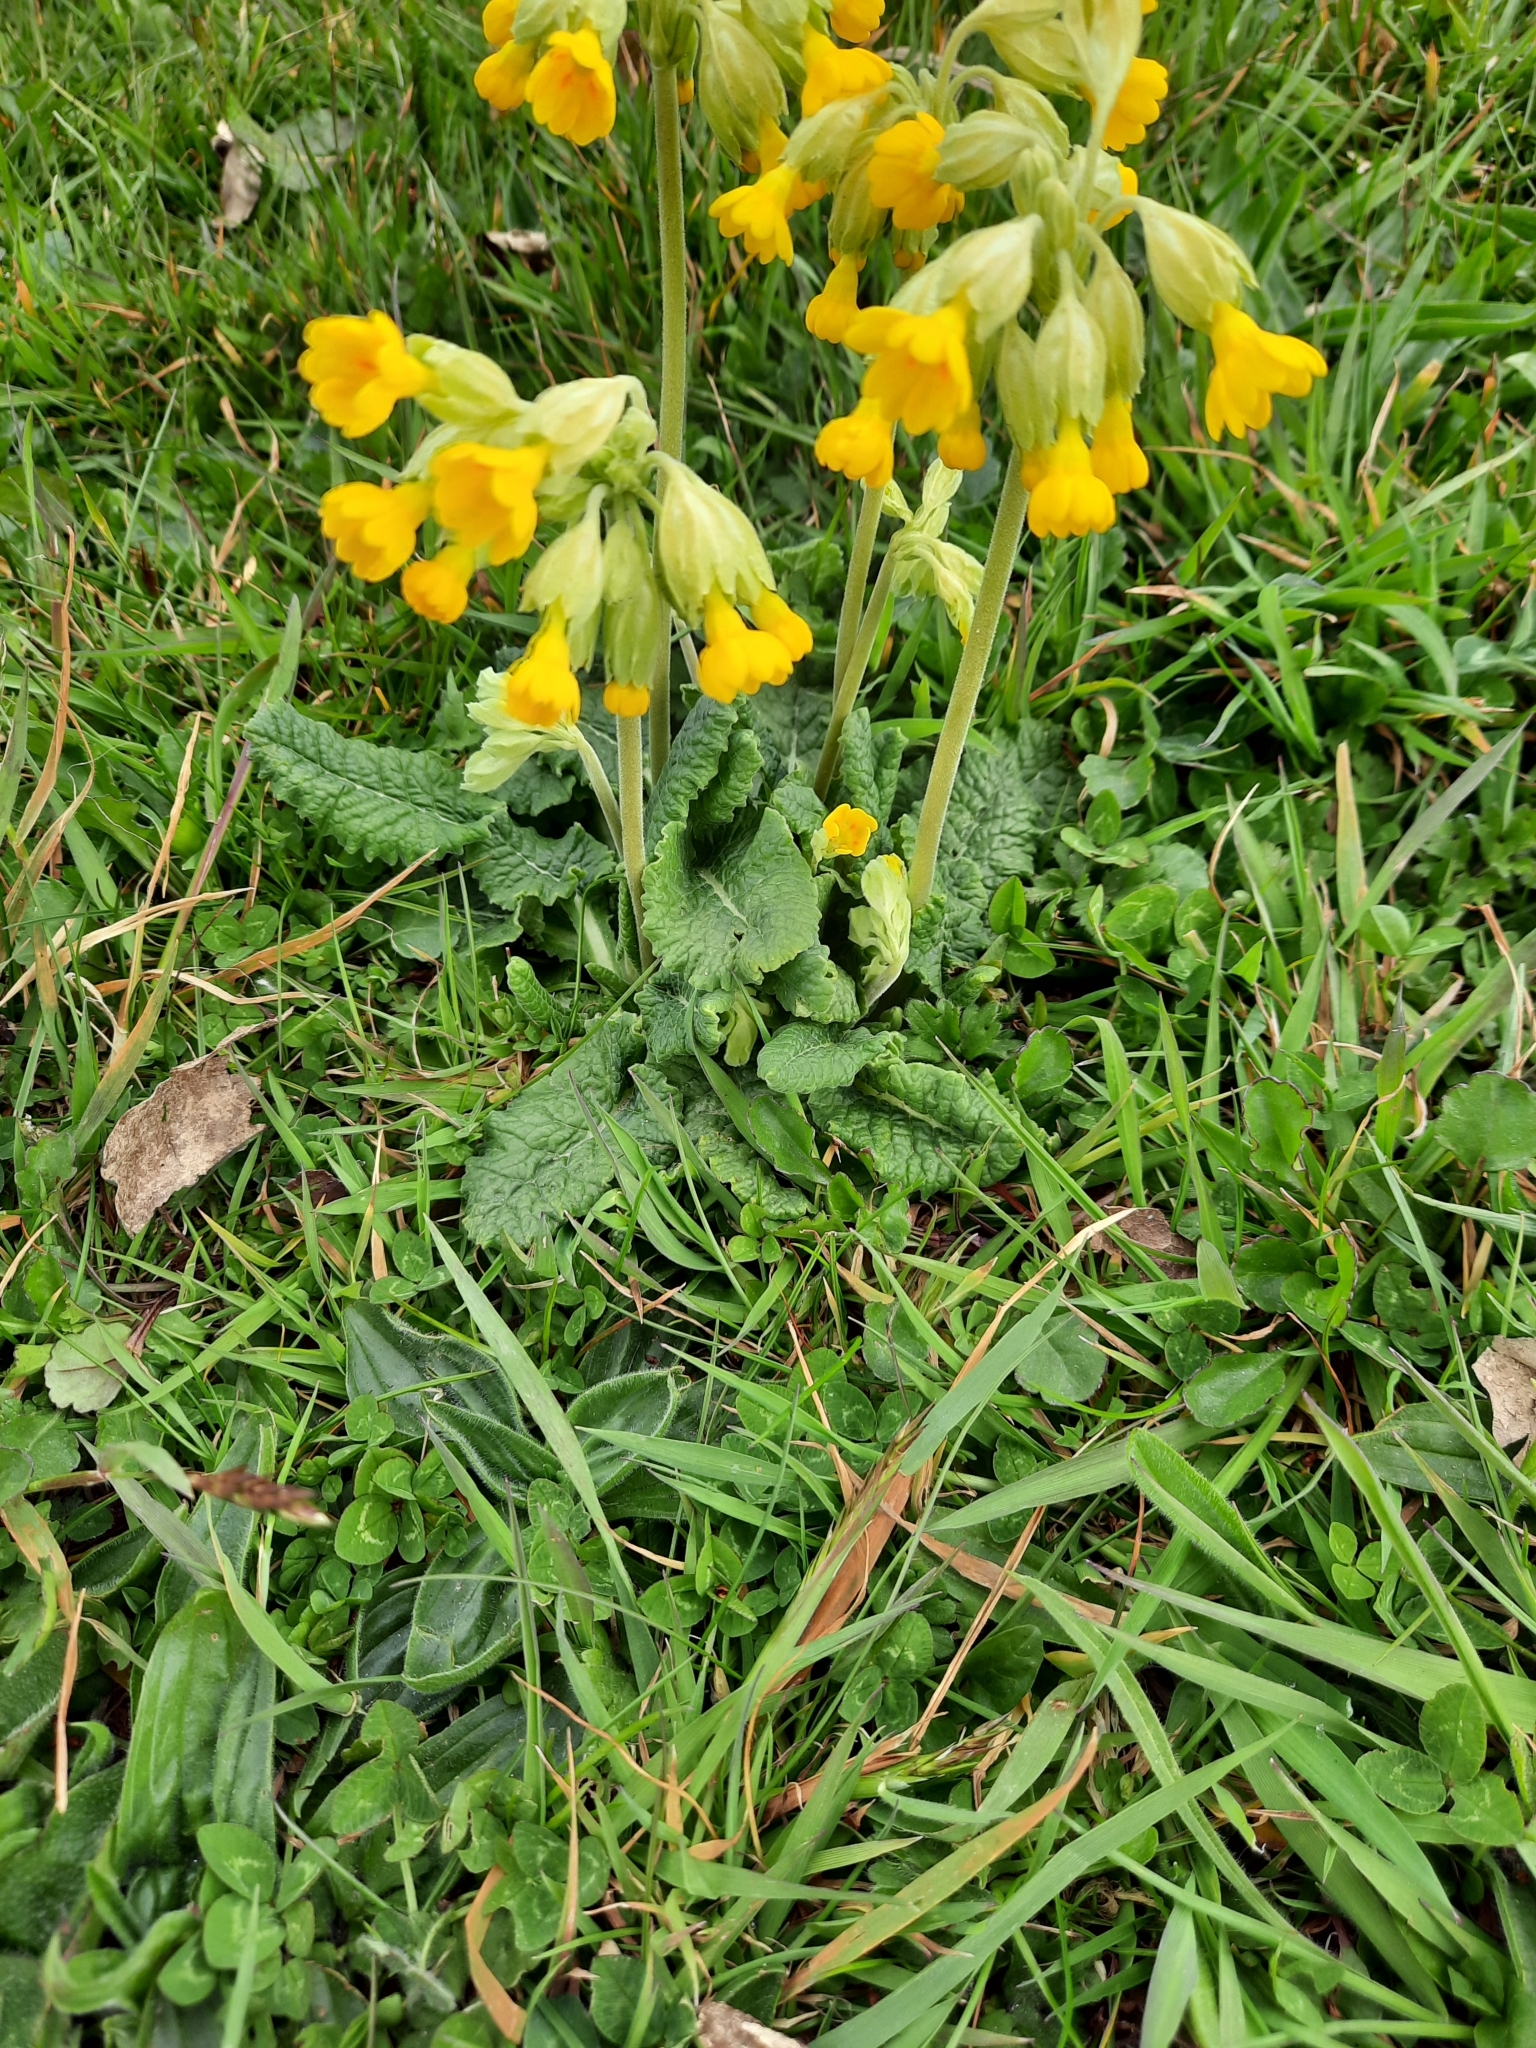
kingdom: Plantae
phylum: Tracheophyta
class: Magnoliopsida
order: Ericales
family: Primulaceae
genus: Primula
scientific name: Primula veris
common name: Cowslip
